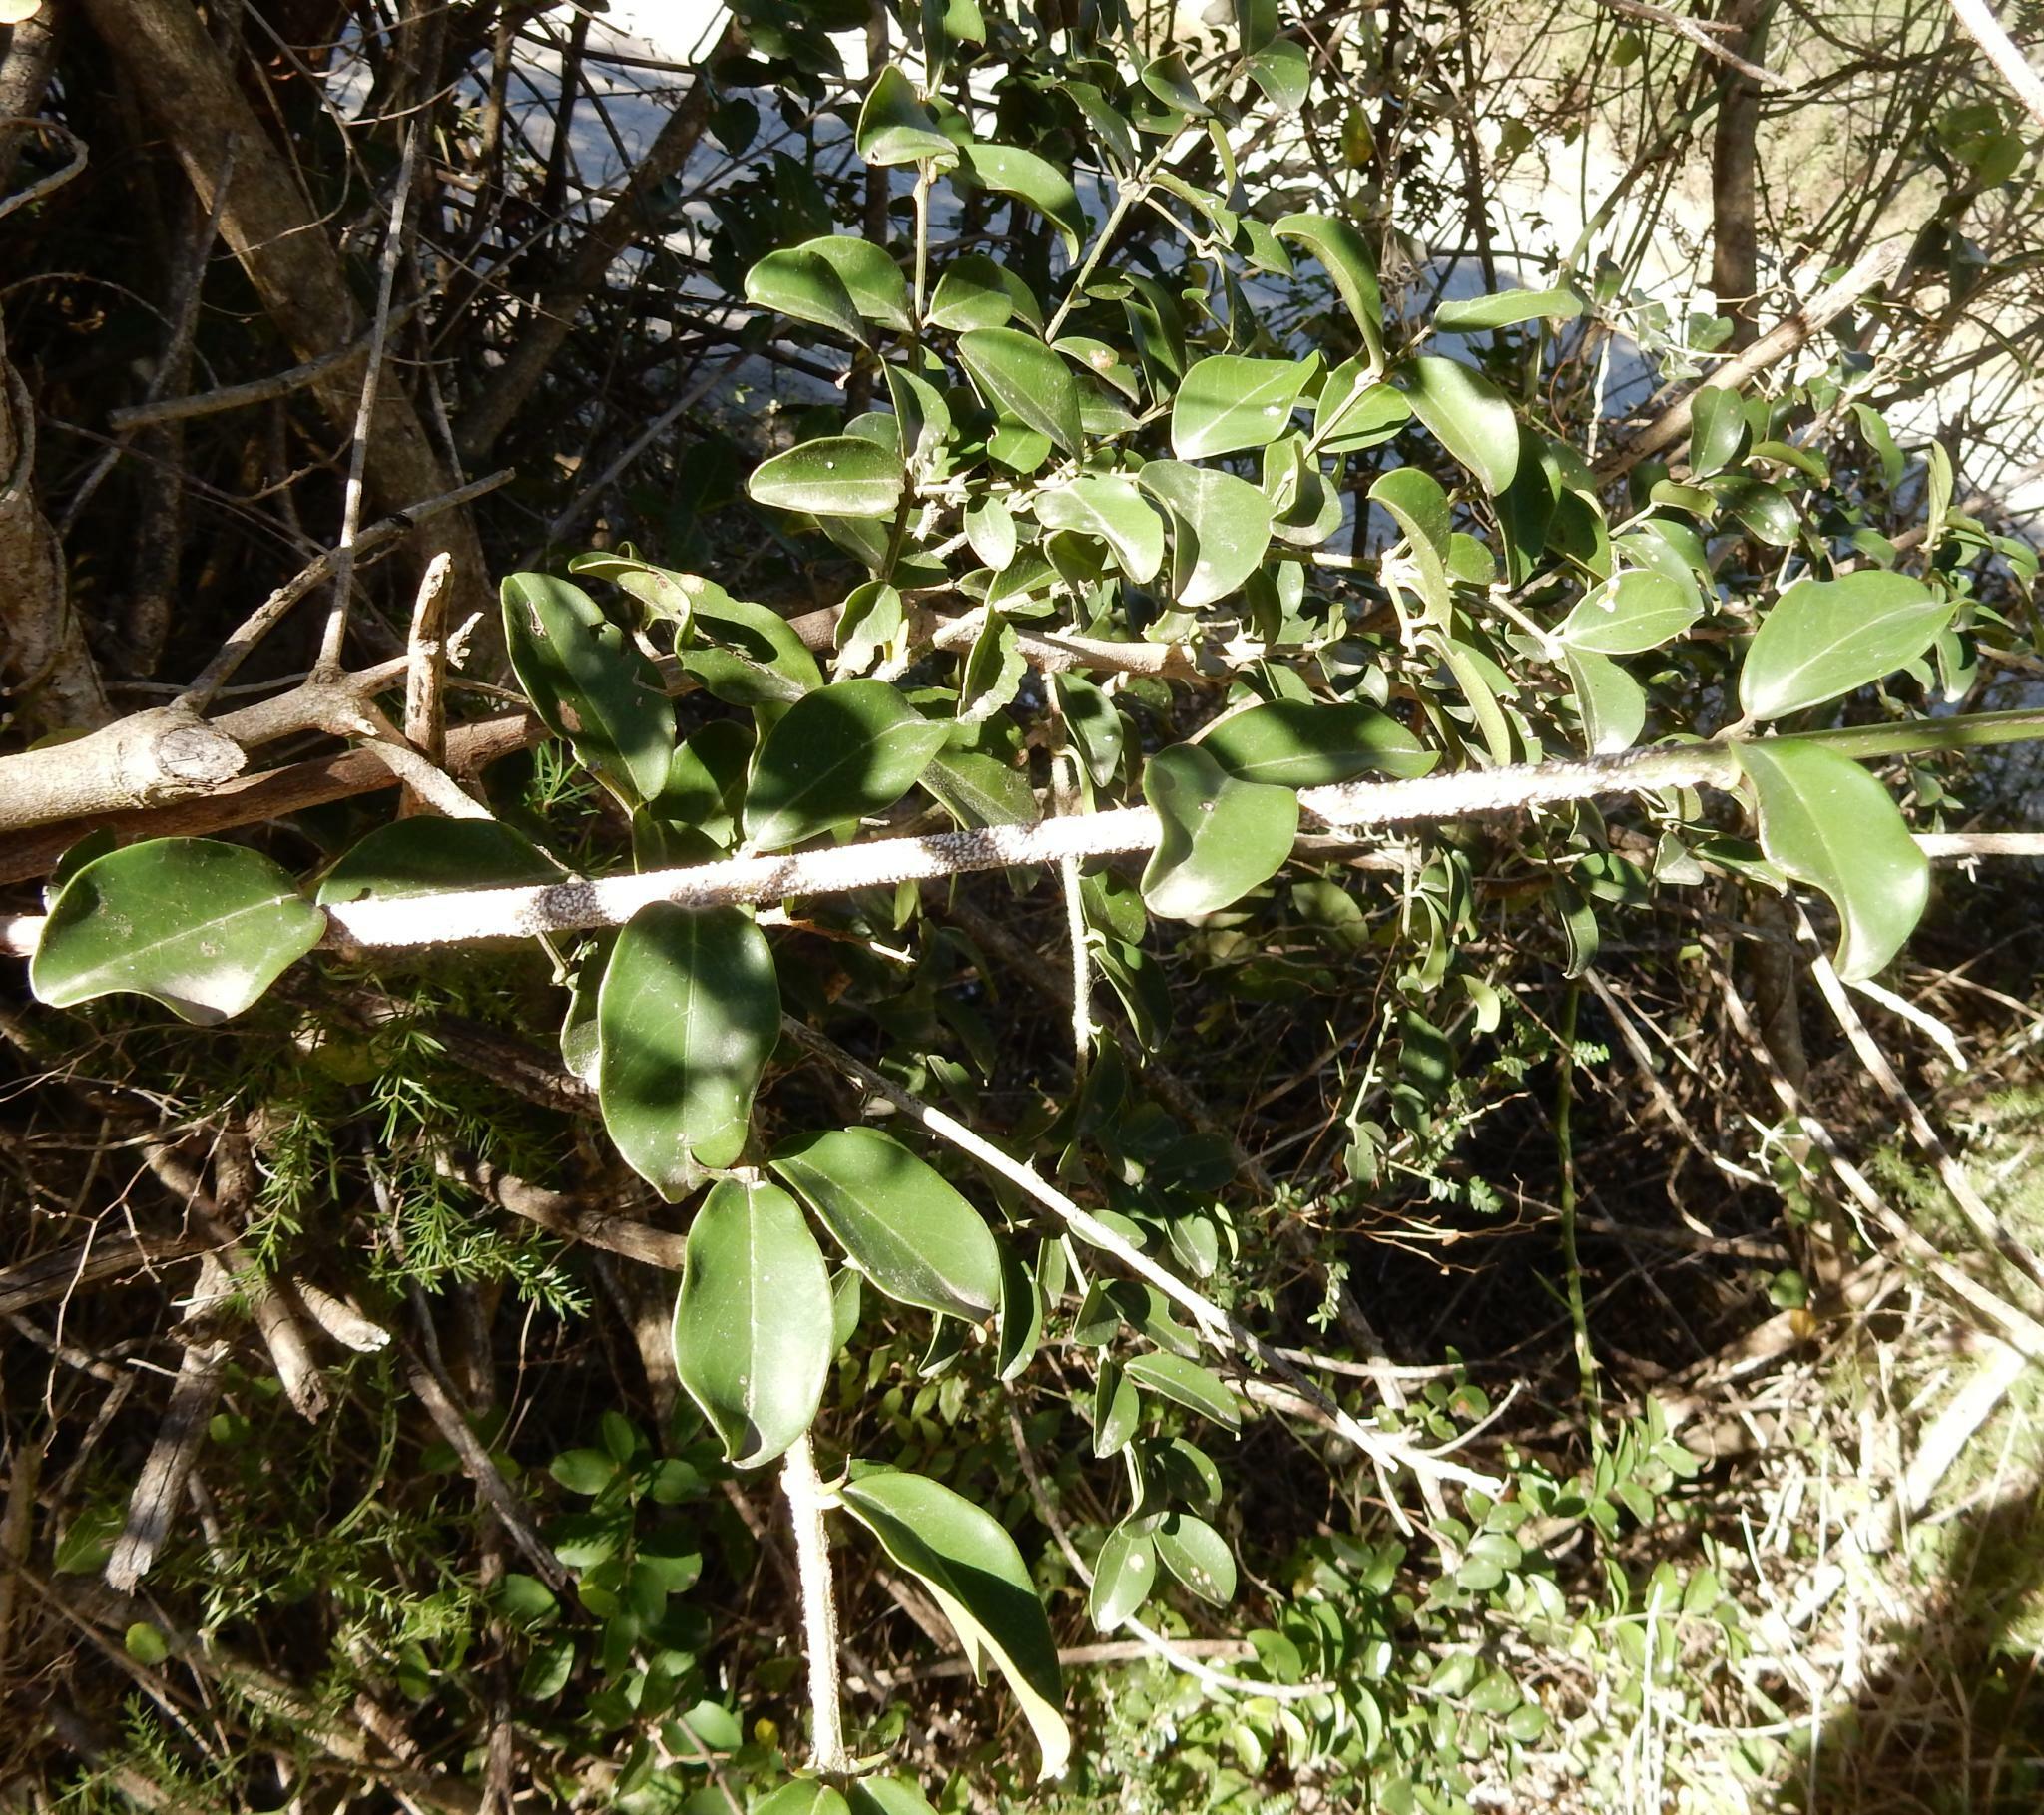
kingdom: Plantae
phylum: Tracheophyta
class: Magnoliopsida
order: Rosales
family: Rhamnaceae
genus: Scutia
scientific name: Scutia myrtina
